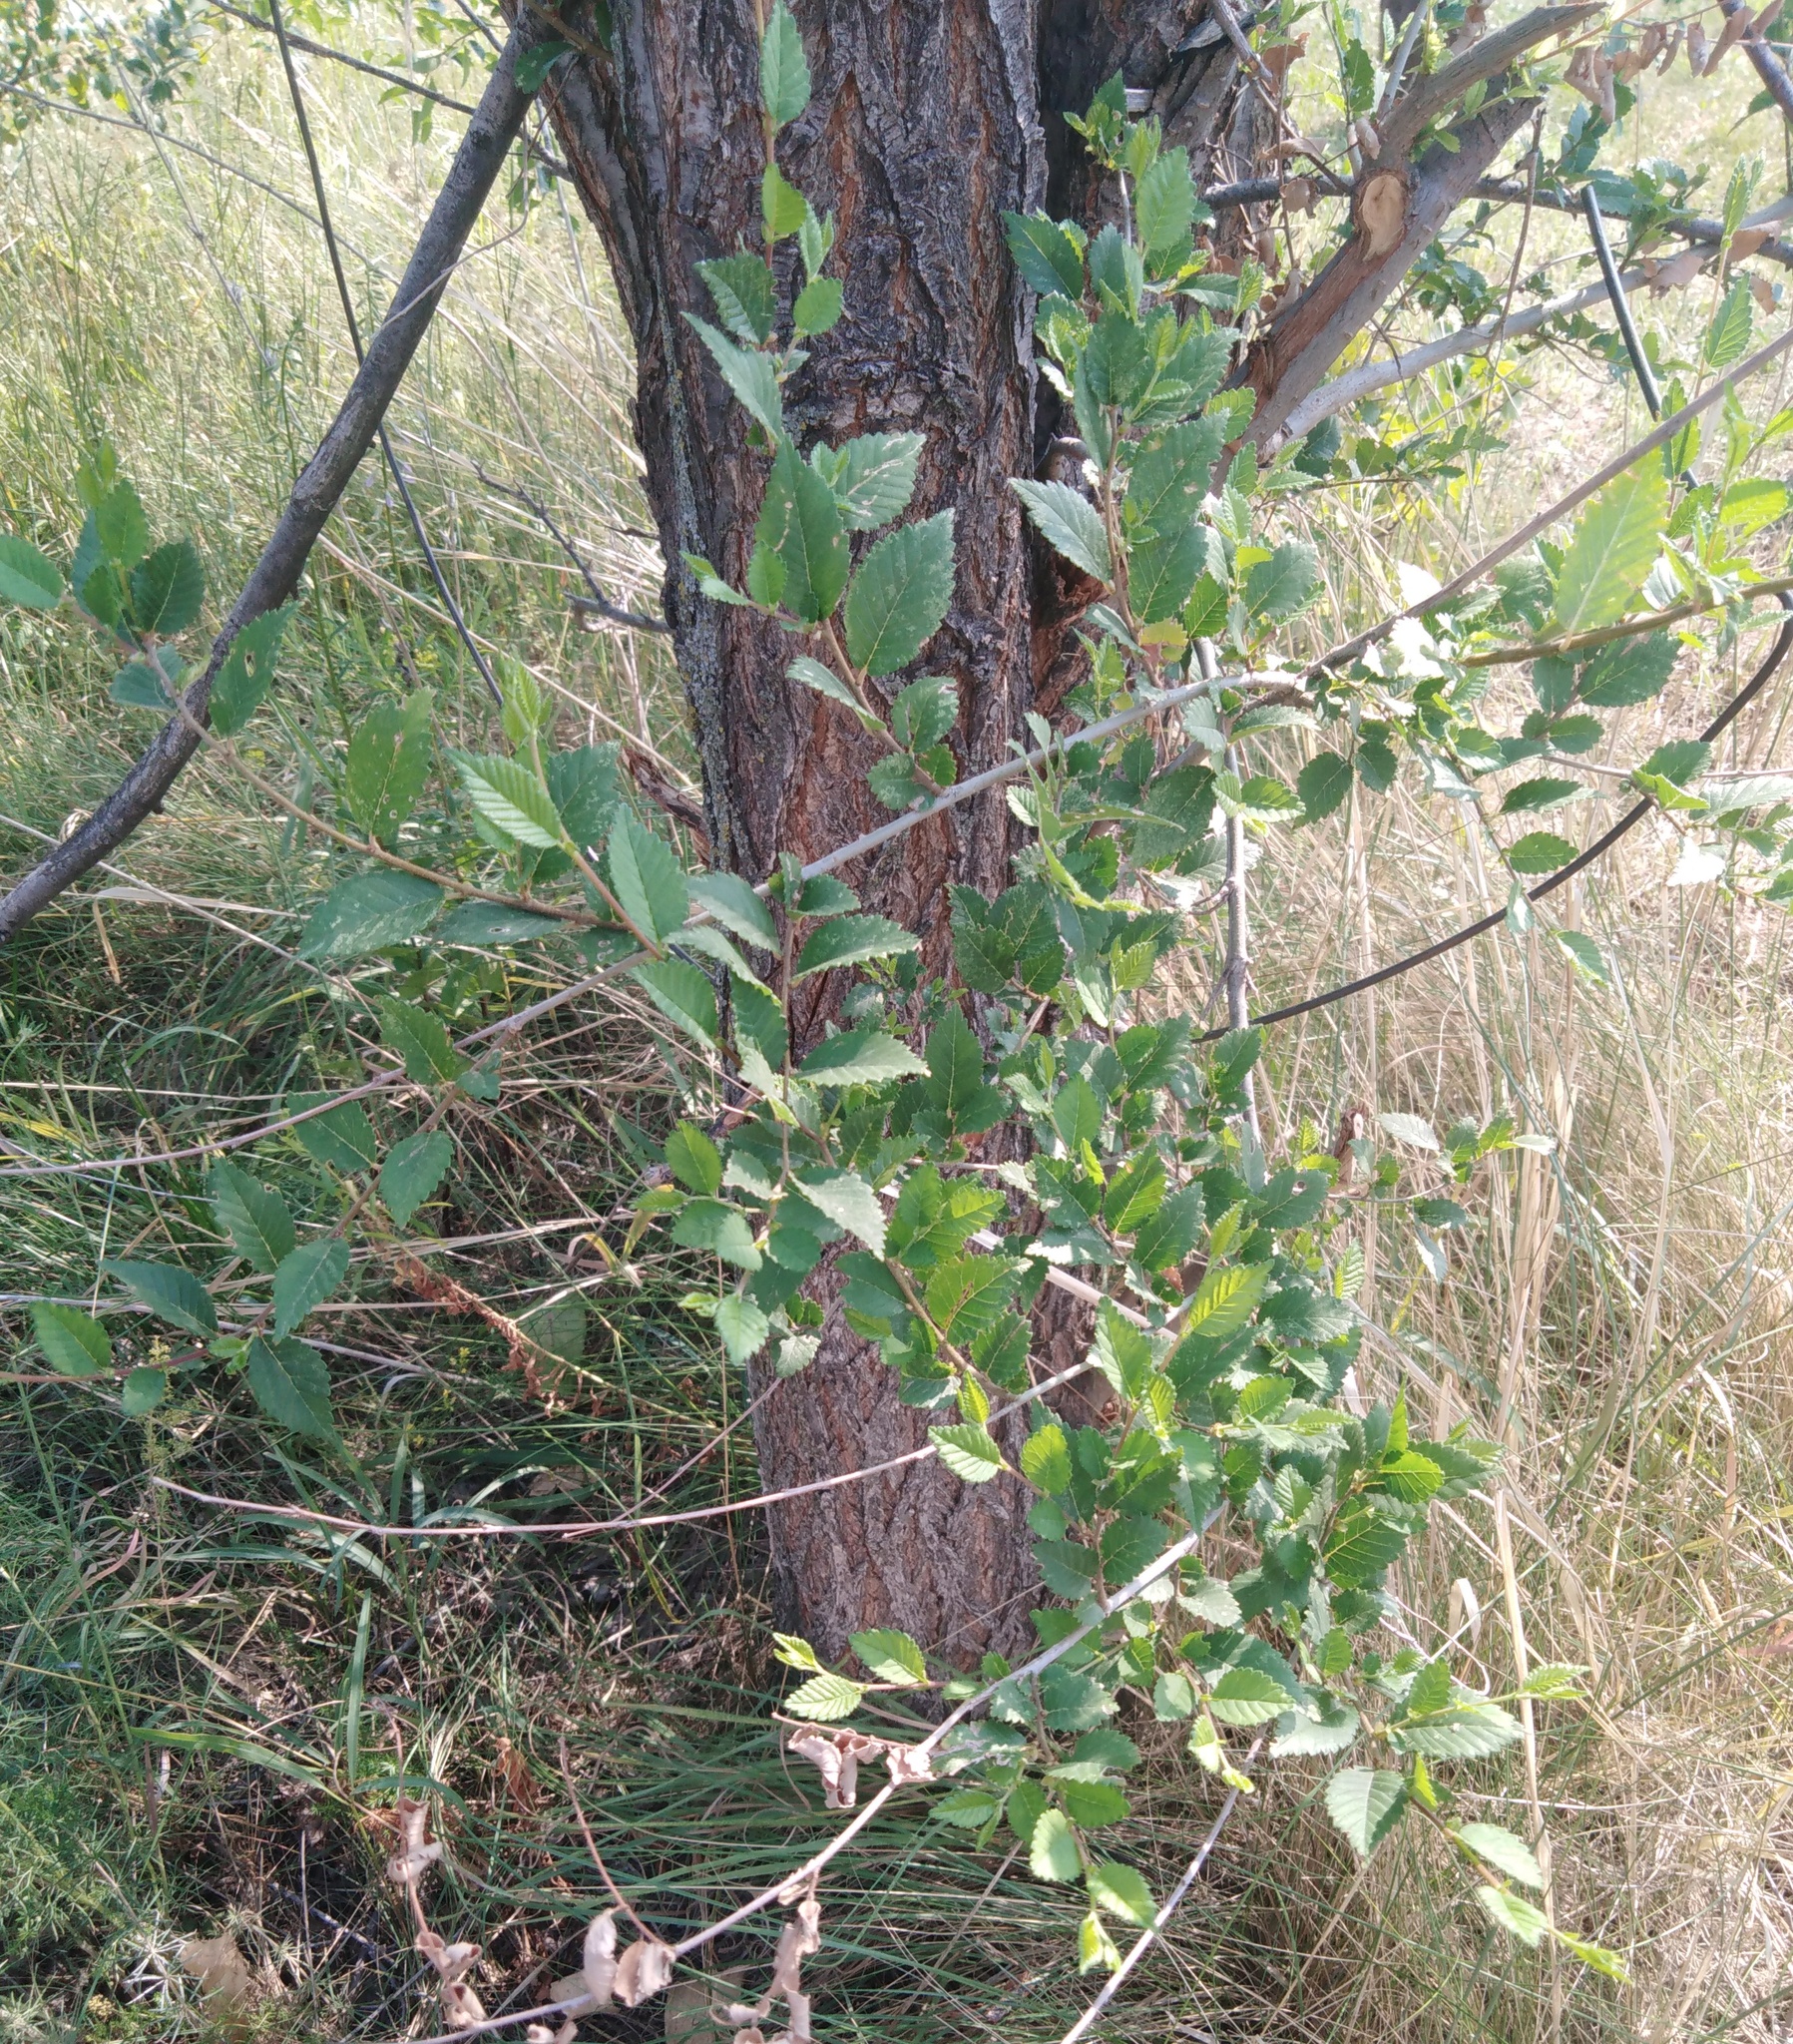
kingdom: Plantae
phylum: Tracheophyta
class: Magnoliopsida
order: Rosales
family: Ulmaceae
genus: Ulmus
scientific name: Ulmus pumila
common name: Siberian elm
